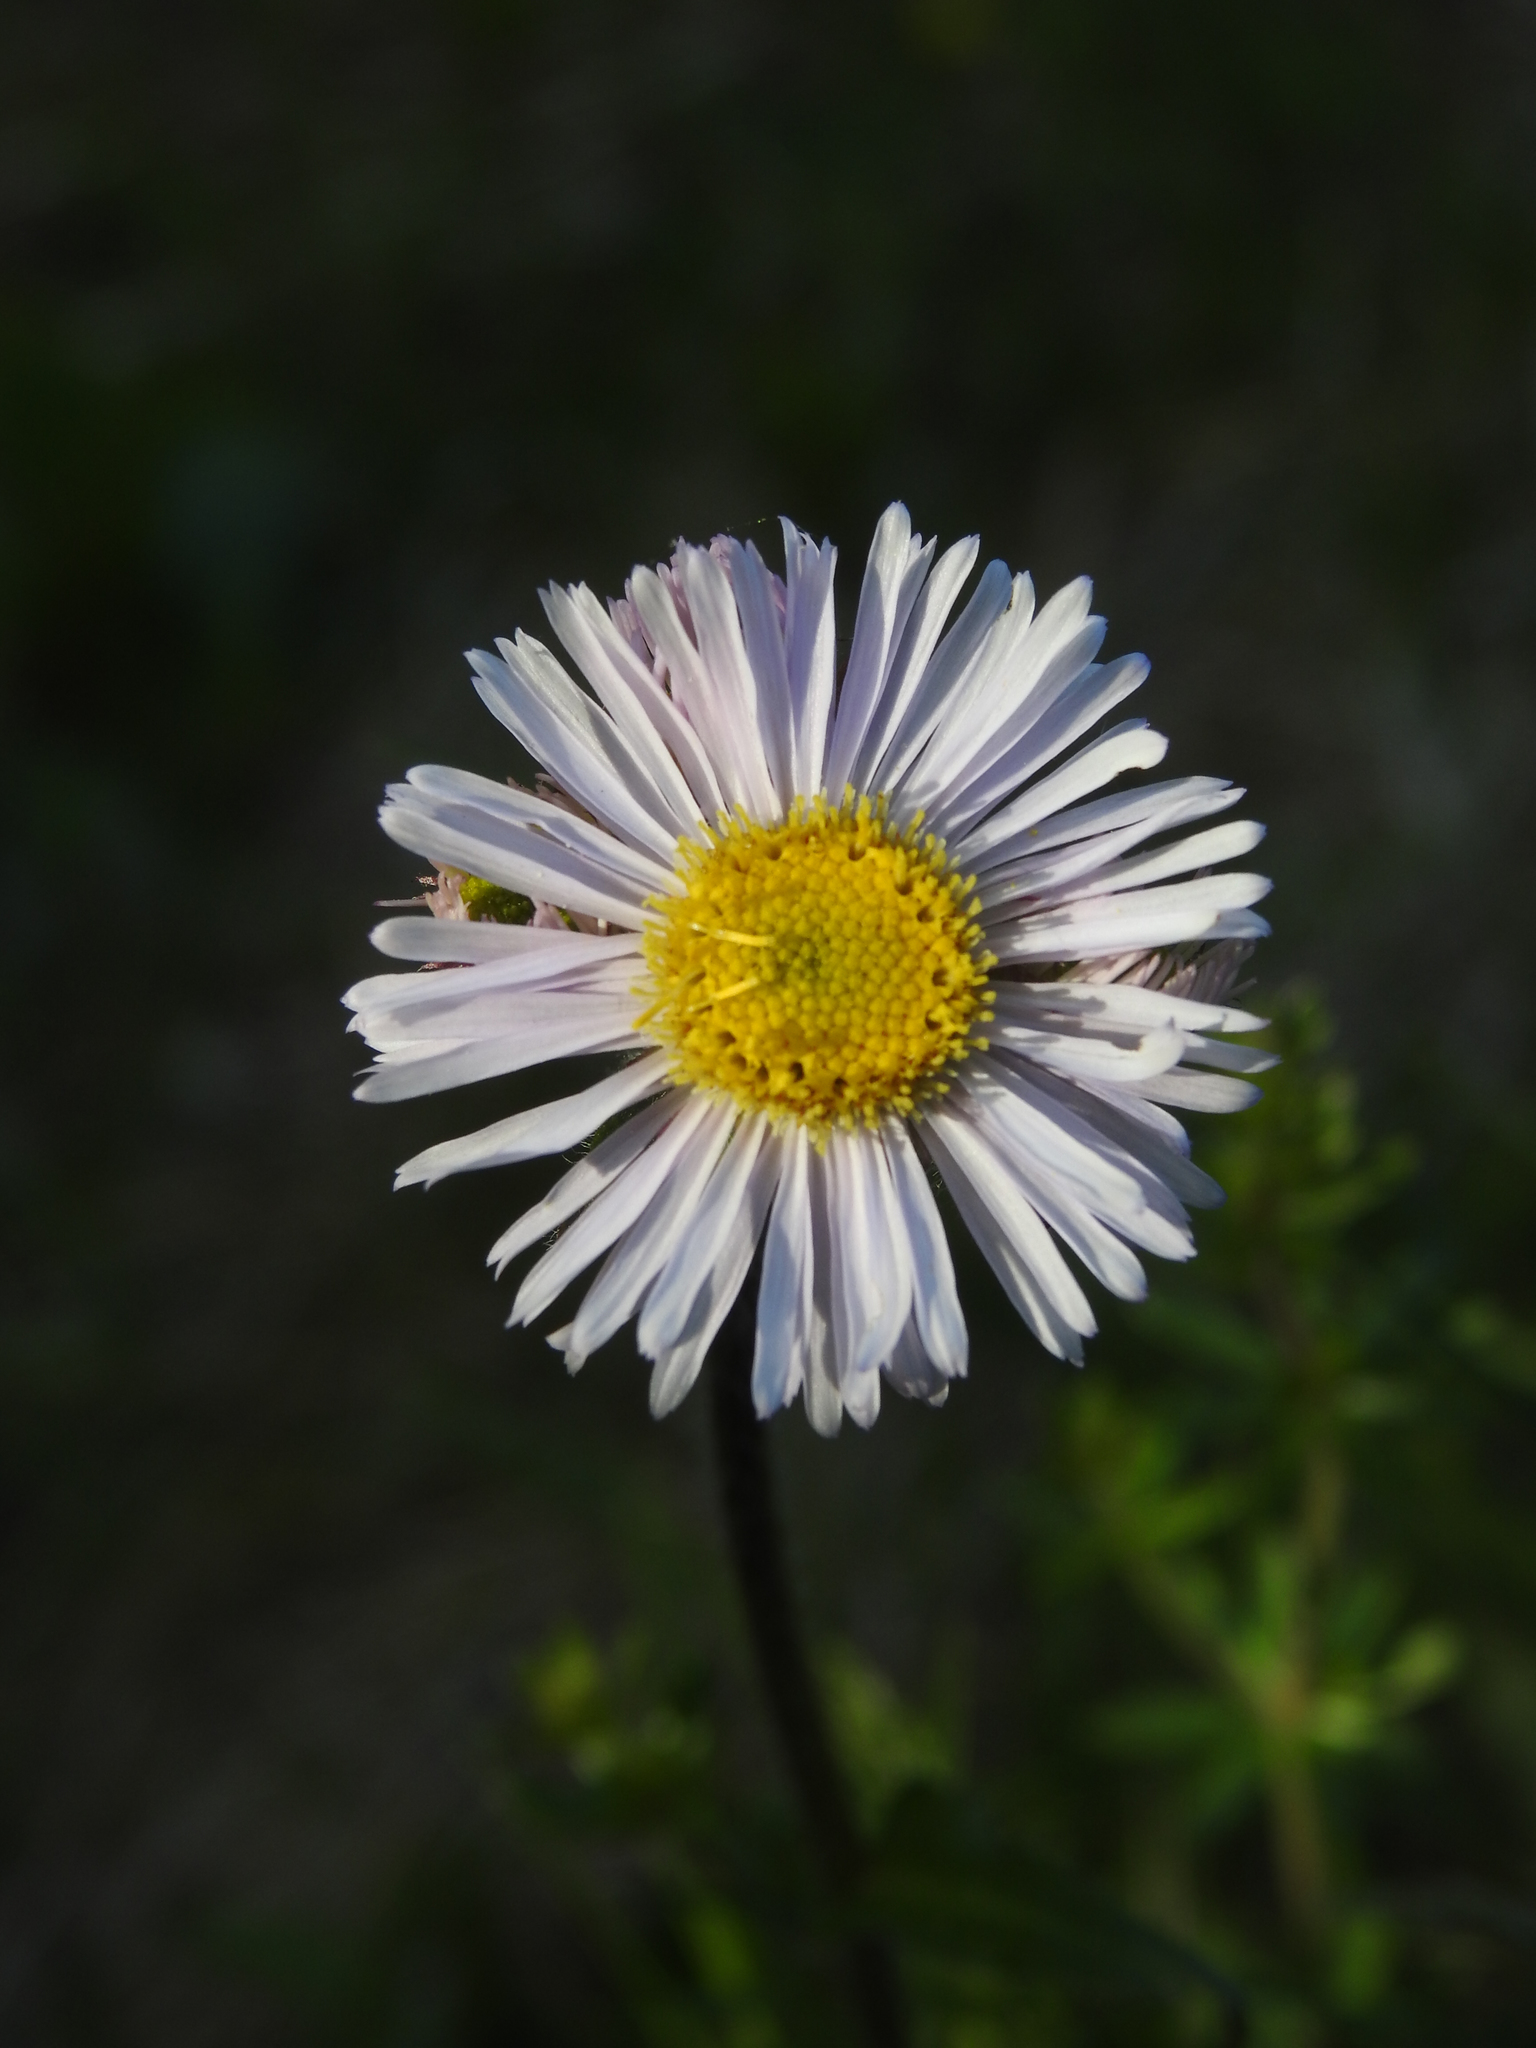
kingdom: Plantae
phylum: Tracheophyta
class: Magnoliopsida
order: Asterales
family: Asteraceae
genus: Erigeron
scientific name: Erigeron pulchellus
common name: Hairy fleabane
